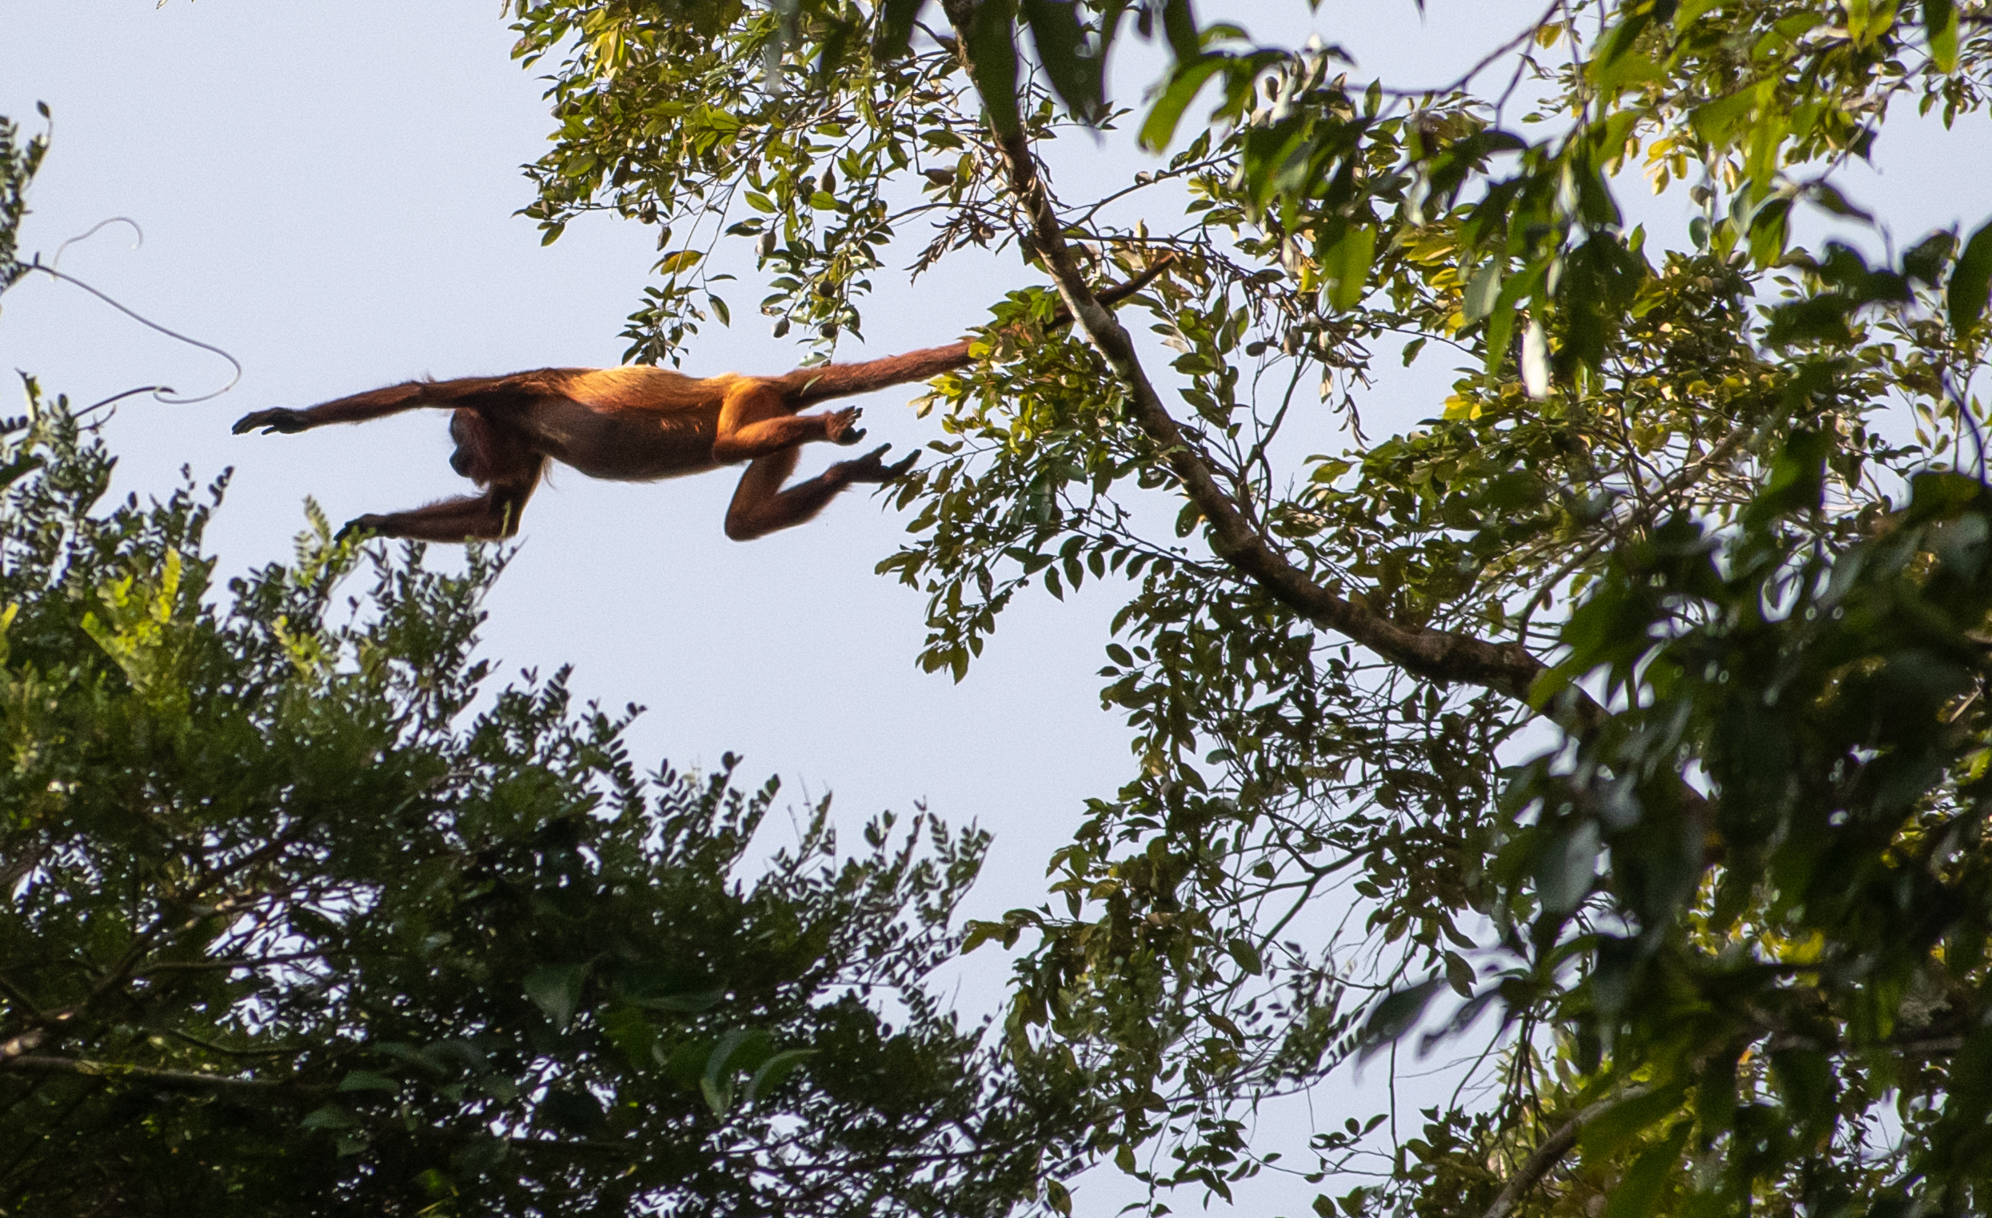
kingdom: Animalia
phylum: Chordata
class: Mammalia
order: Primates
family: Atelidae
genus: Alouatta
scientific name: Alouatta macconnelli
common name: Guyanan red howler
